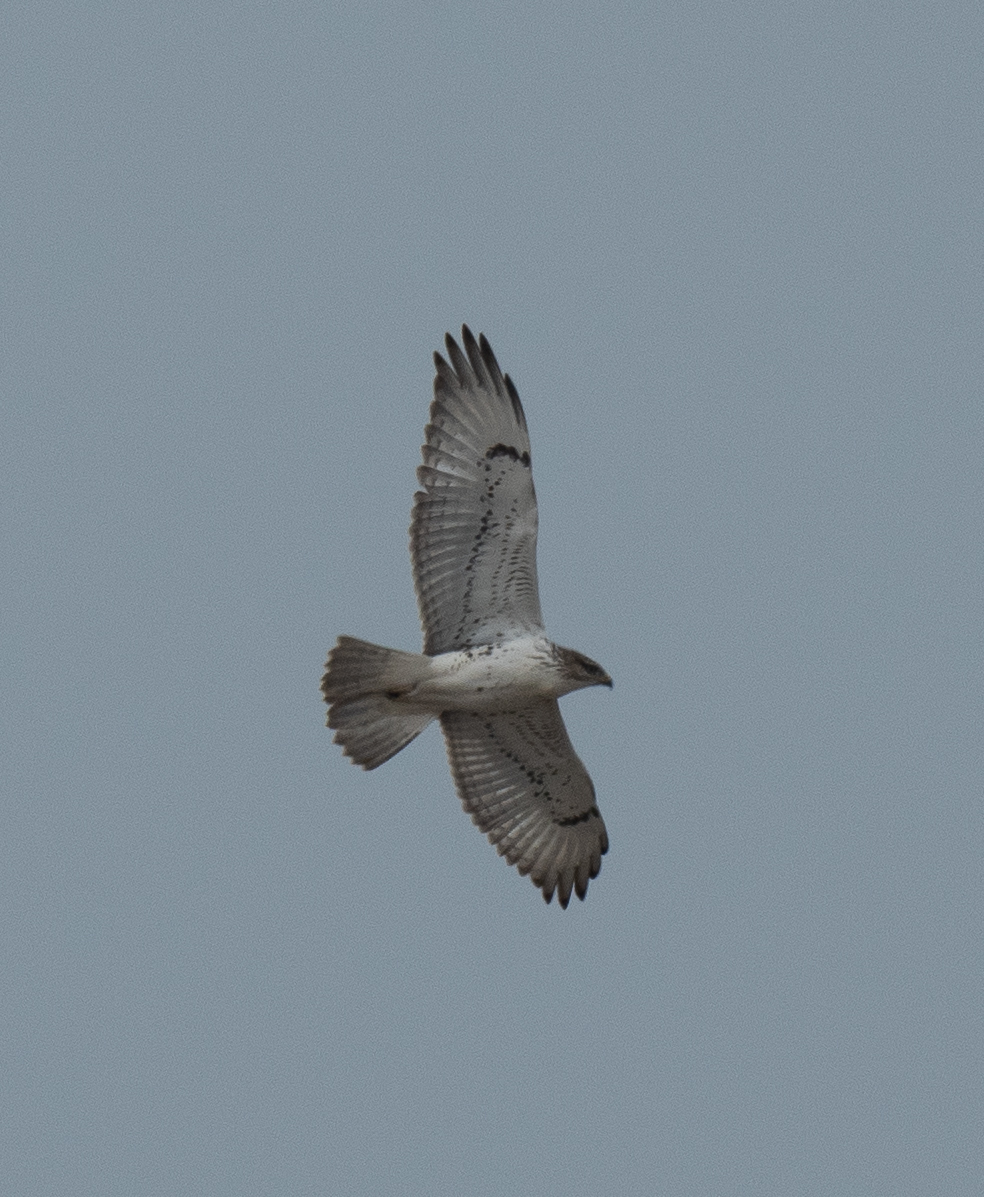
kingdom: Animalia
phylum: Chordata
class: Aves
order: Accipitriformes
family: Accipitridae
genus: Buteo
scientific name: Buteo regalis
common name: Ferruginous hawk
